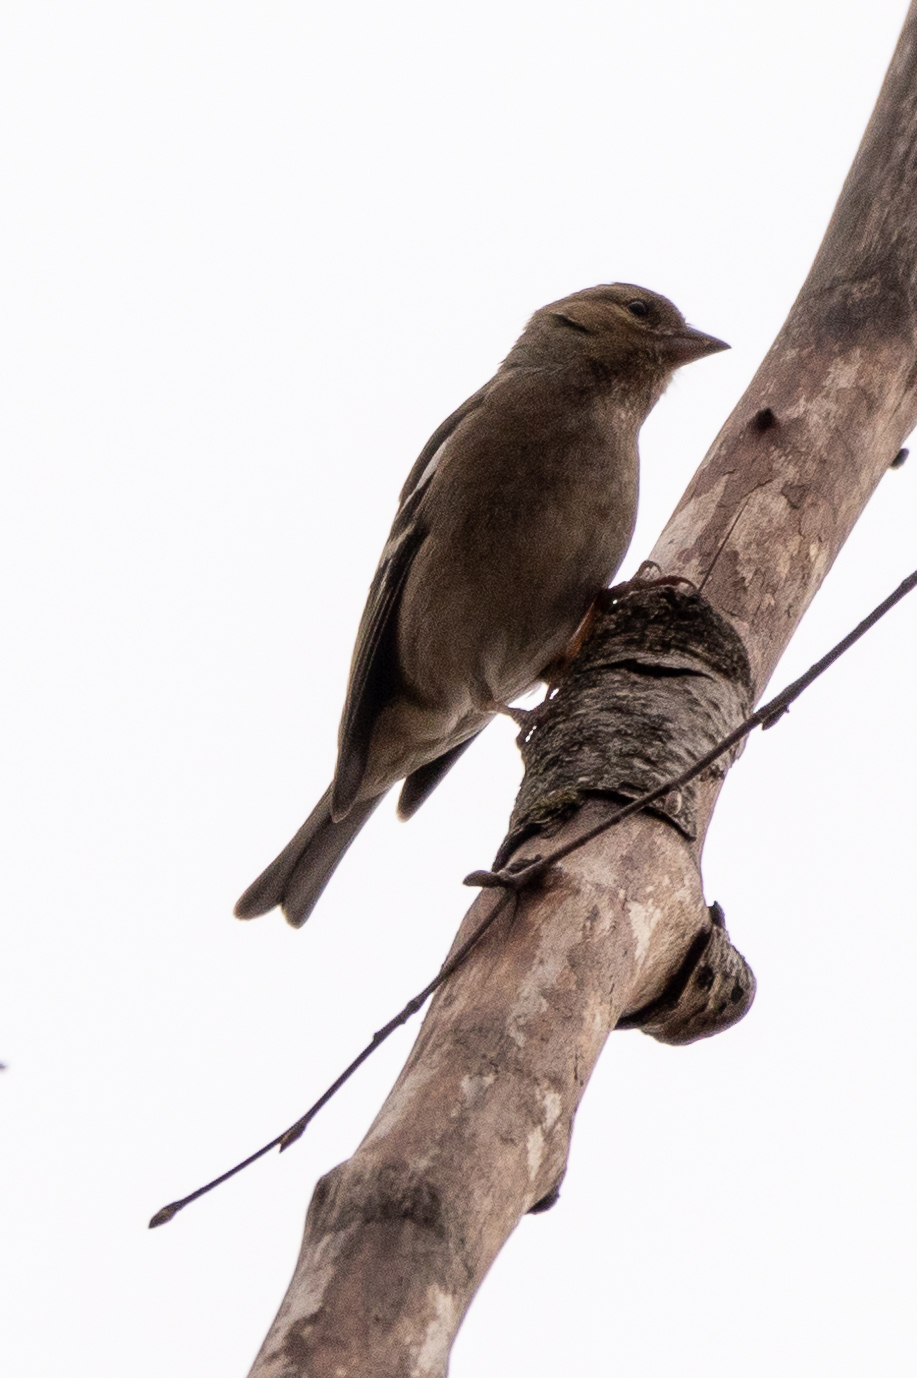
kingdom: Animalia
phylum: Chordata
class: Aves
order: Passeriformes
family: Fringillidae
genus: Fringilla
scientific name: Fringilla coelebs
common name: Common chaffinch
